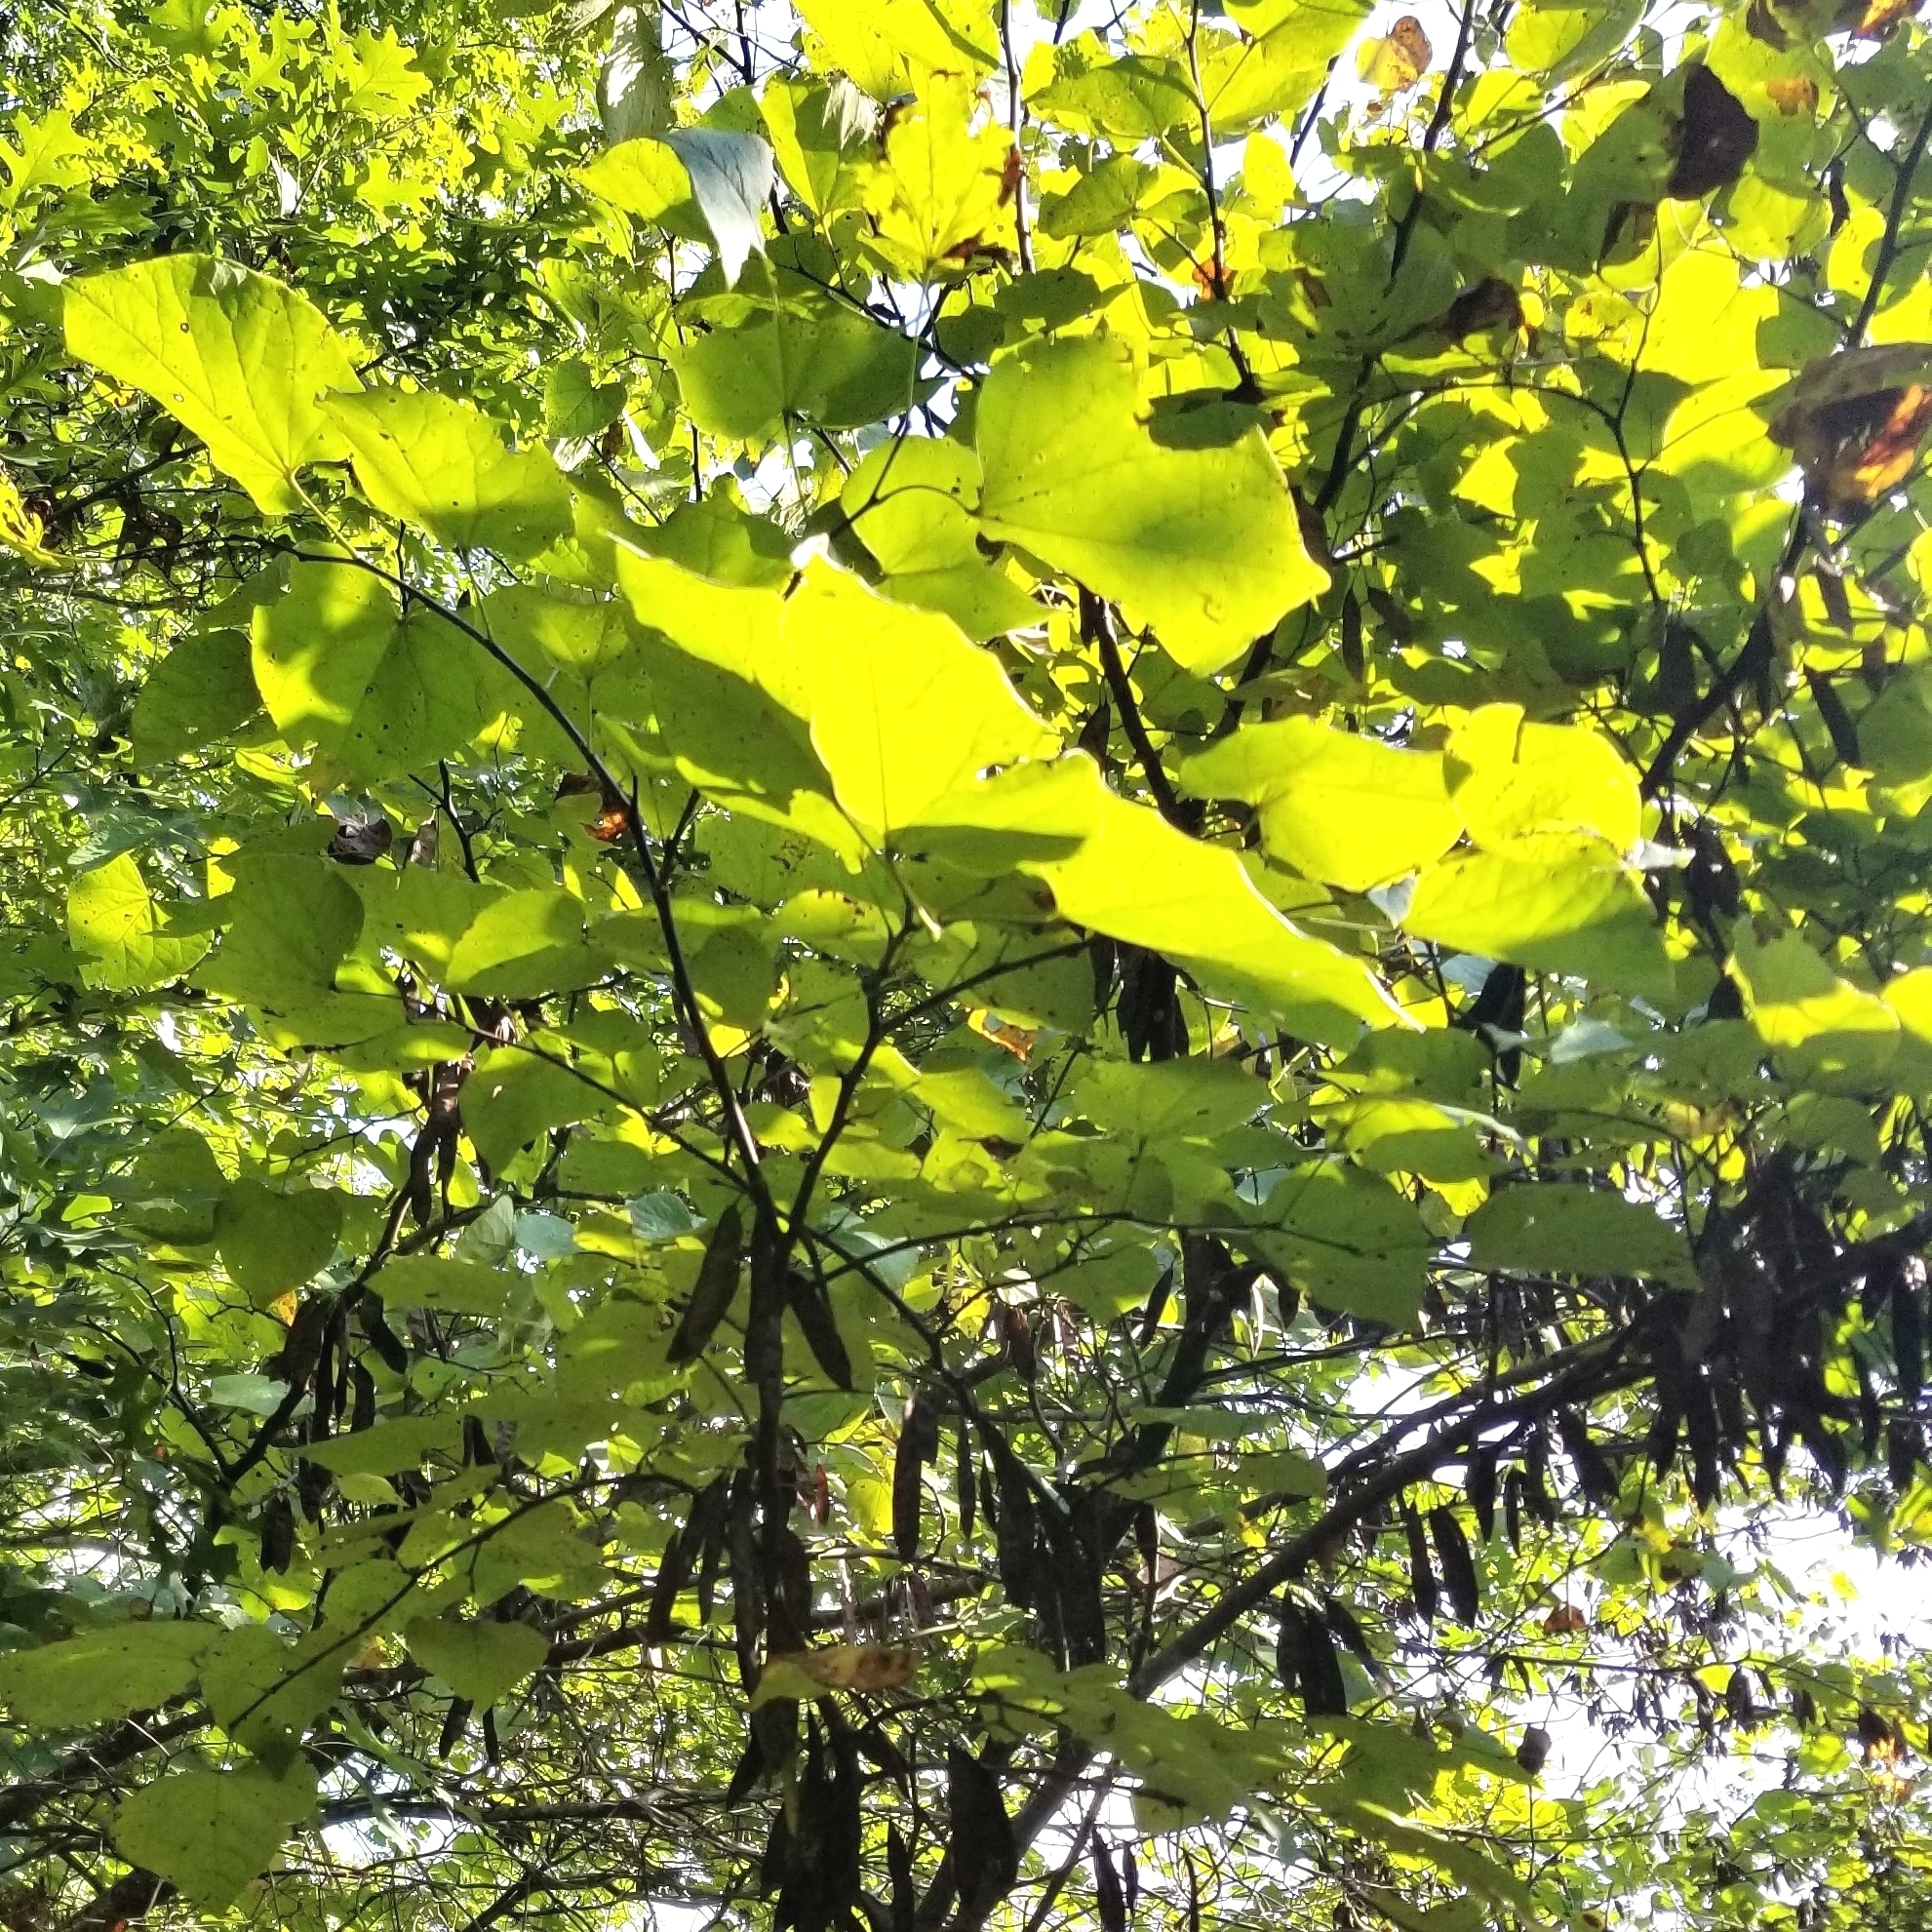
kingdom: Plantae
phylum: Tracheophyta
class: Magnoliopsida
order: Fabales
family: Fabaceae
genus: Cercis
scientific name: Cercis canadensis
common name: Eastern redbud
